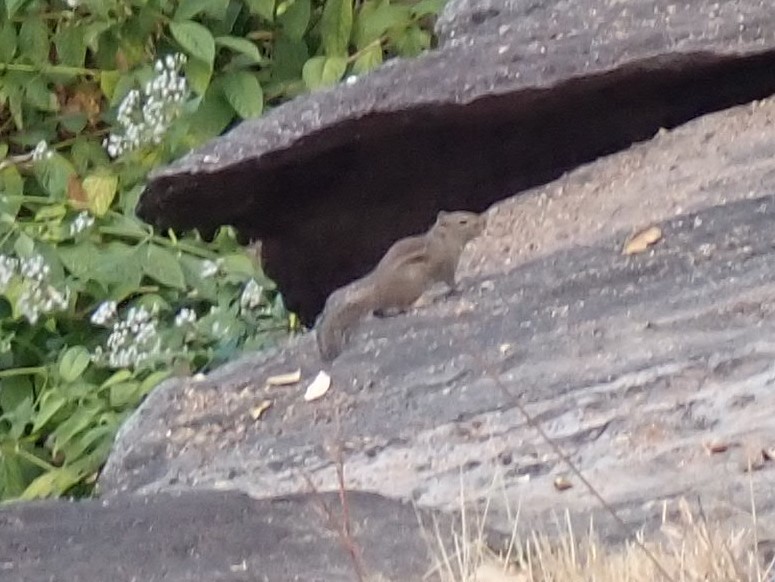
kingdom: Animalia
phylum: Chordata
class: Mammalia
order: Rodentia
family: Sciuridae
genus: Menetes
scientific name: Menetes berdmorei
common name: Indochinese ground squirrel
